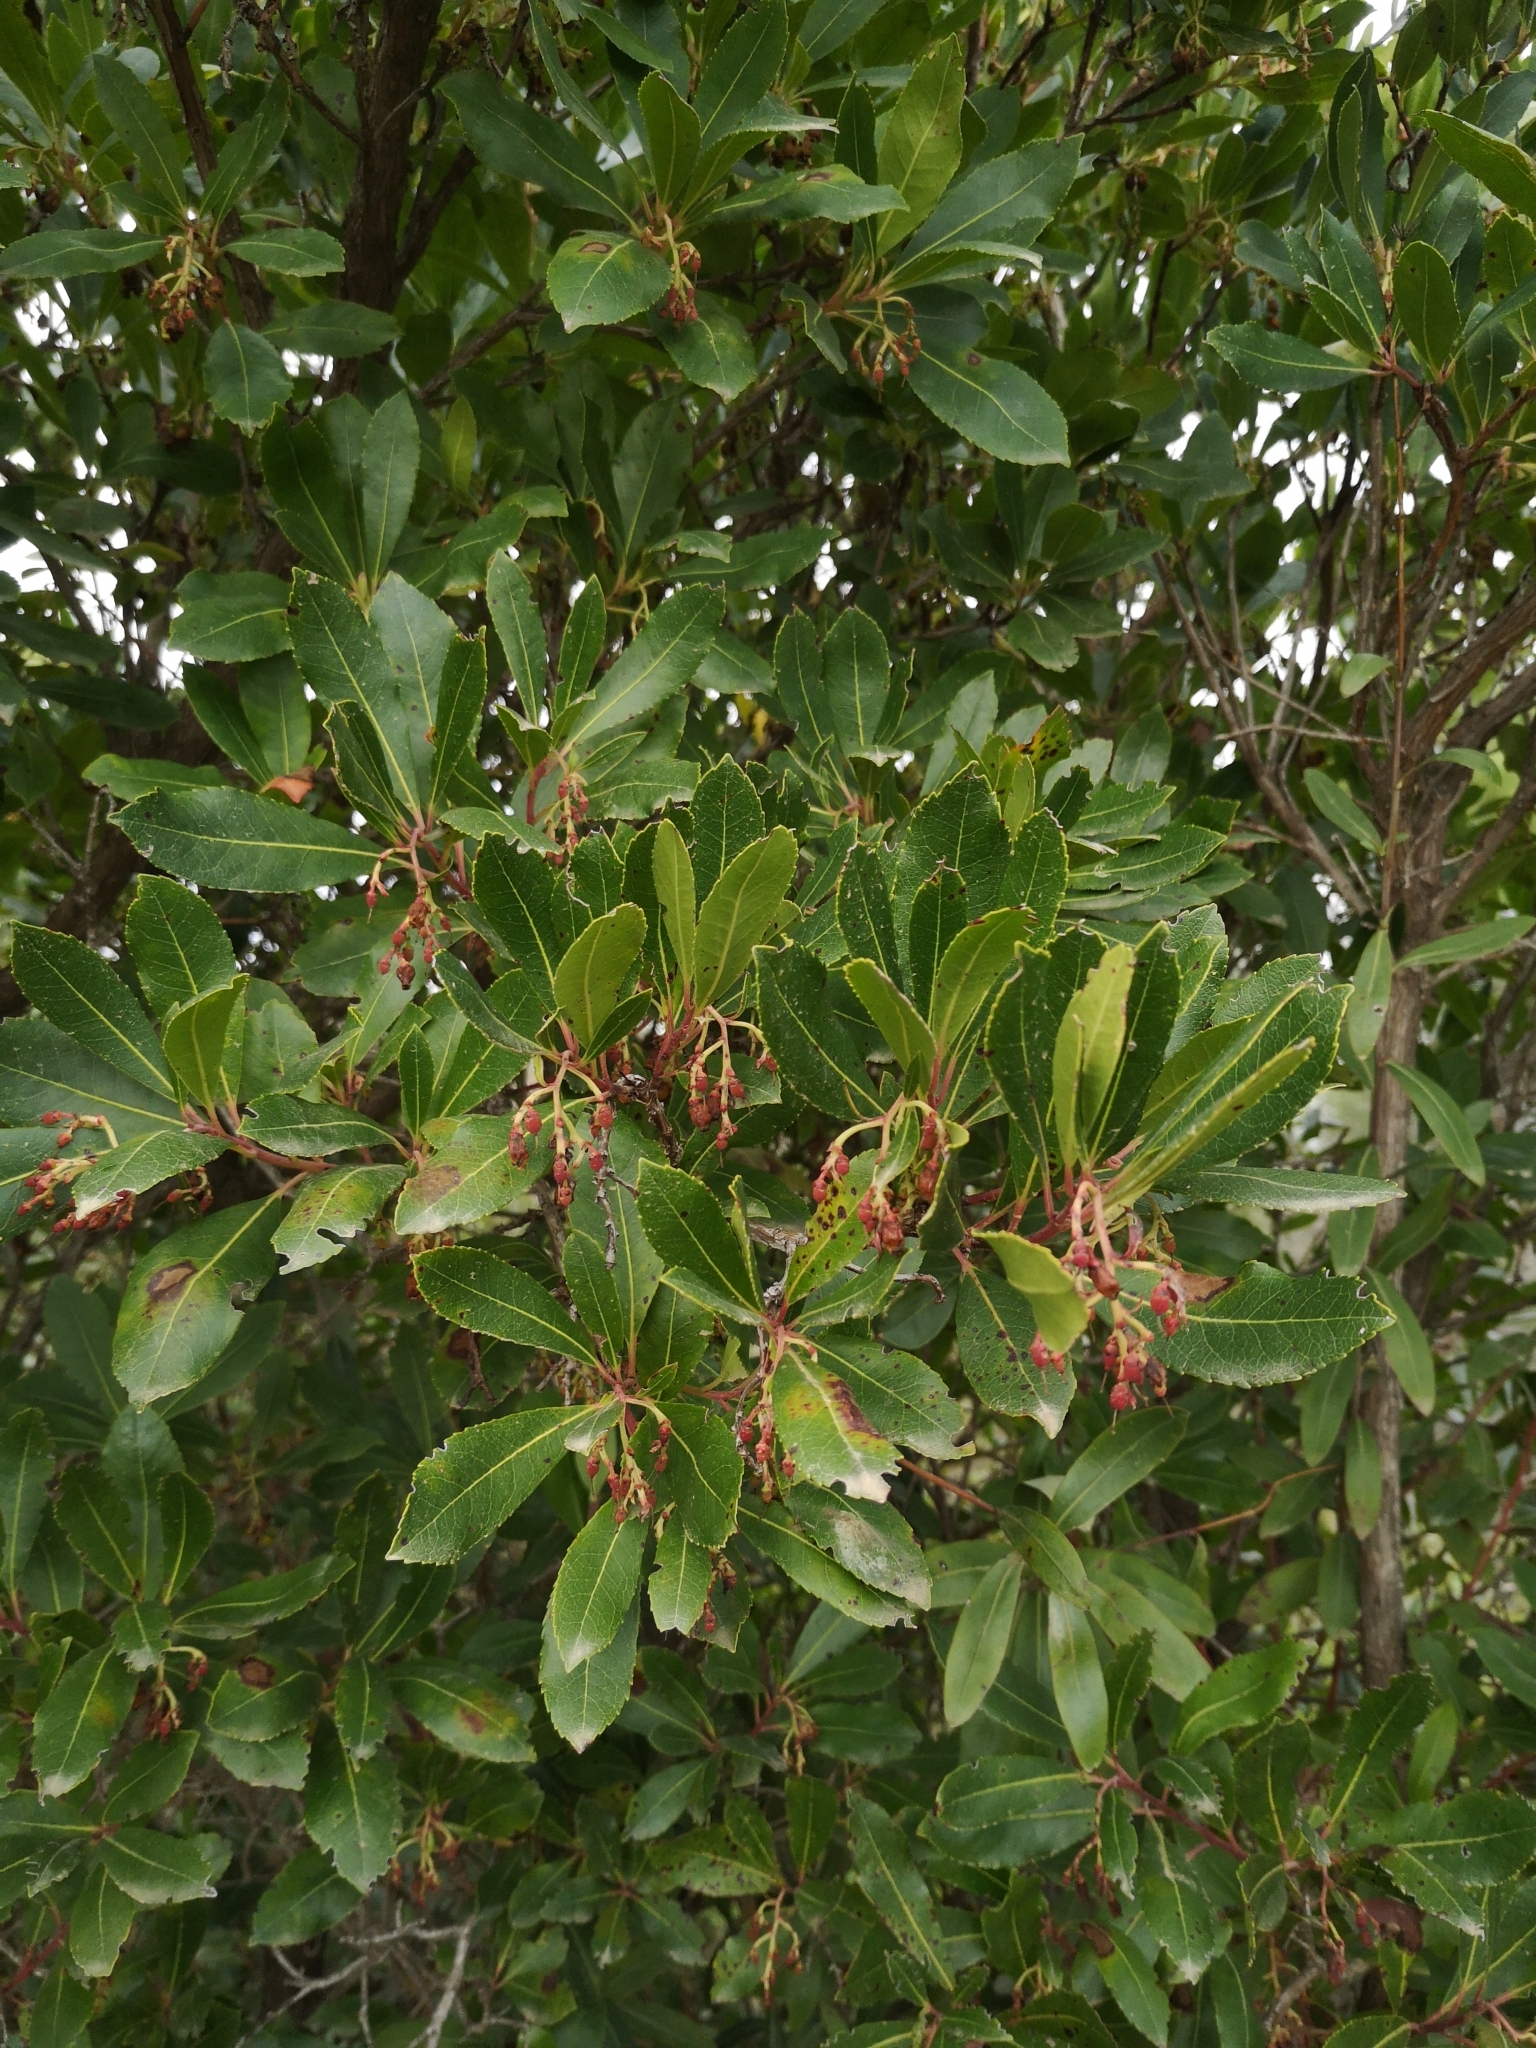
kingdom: Plantae
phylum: Tracheophyta
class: Magnoliopsida
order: Ericales
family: Ericaceae
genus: Arbutus
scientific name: Arbutus unedo
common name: Strawberry-tree
